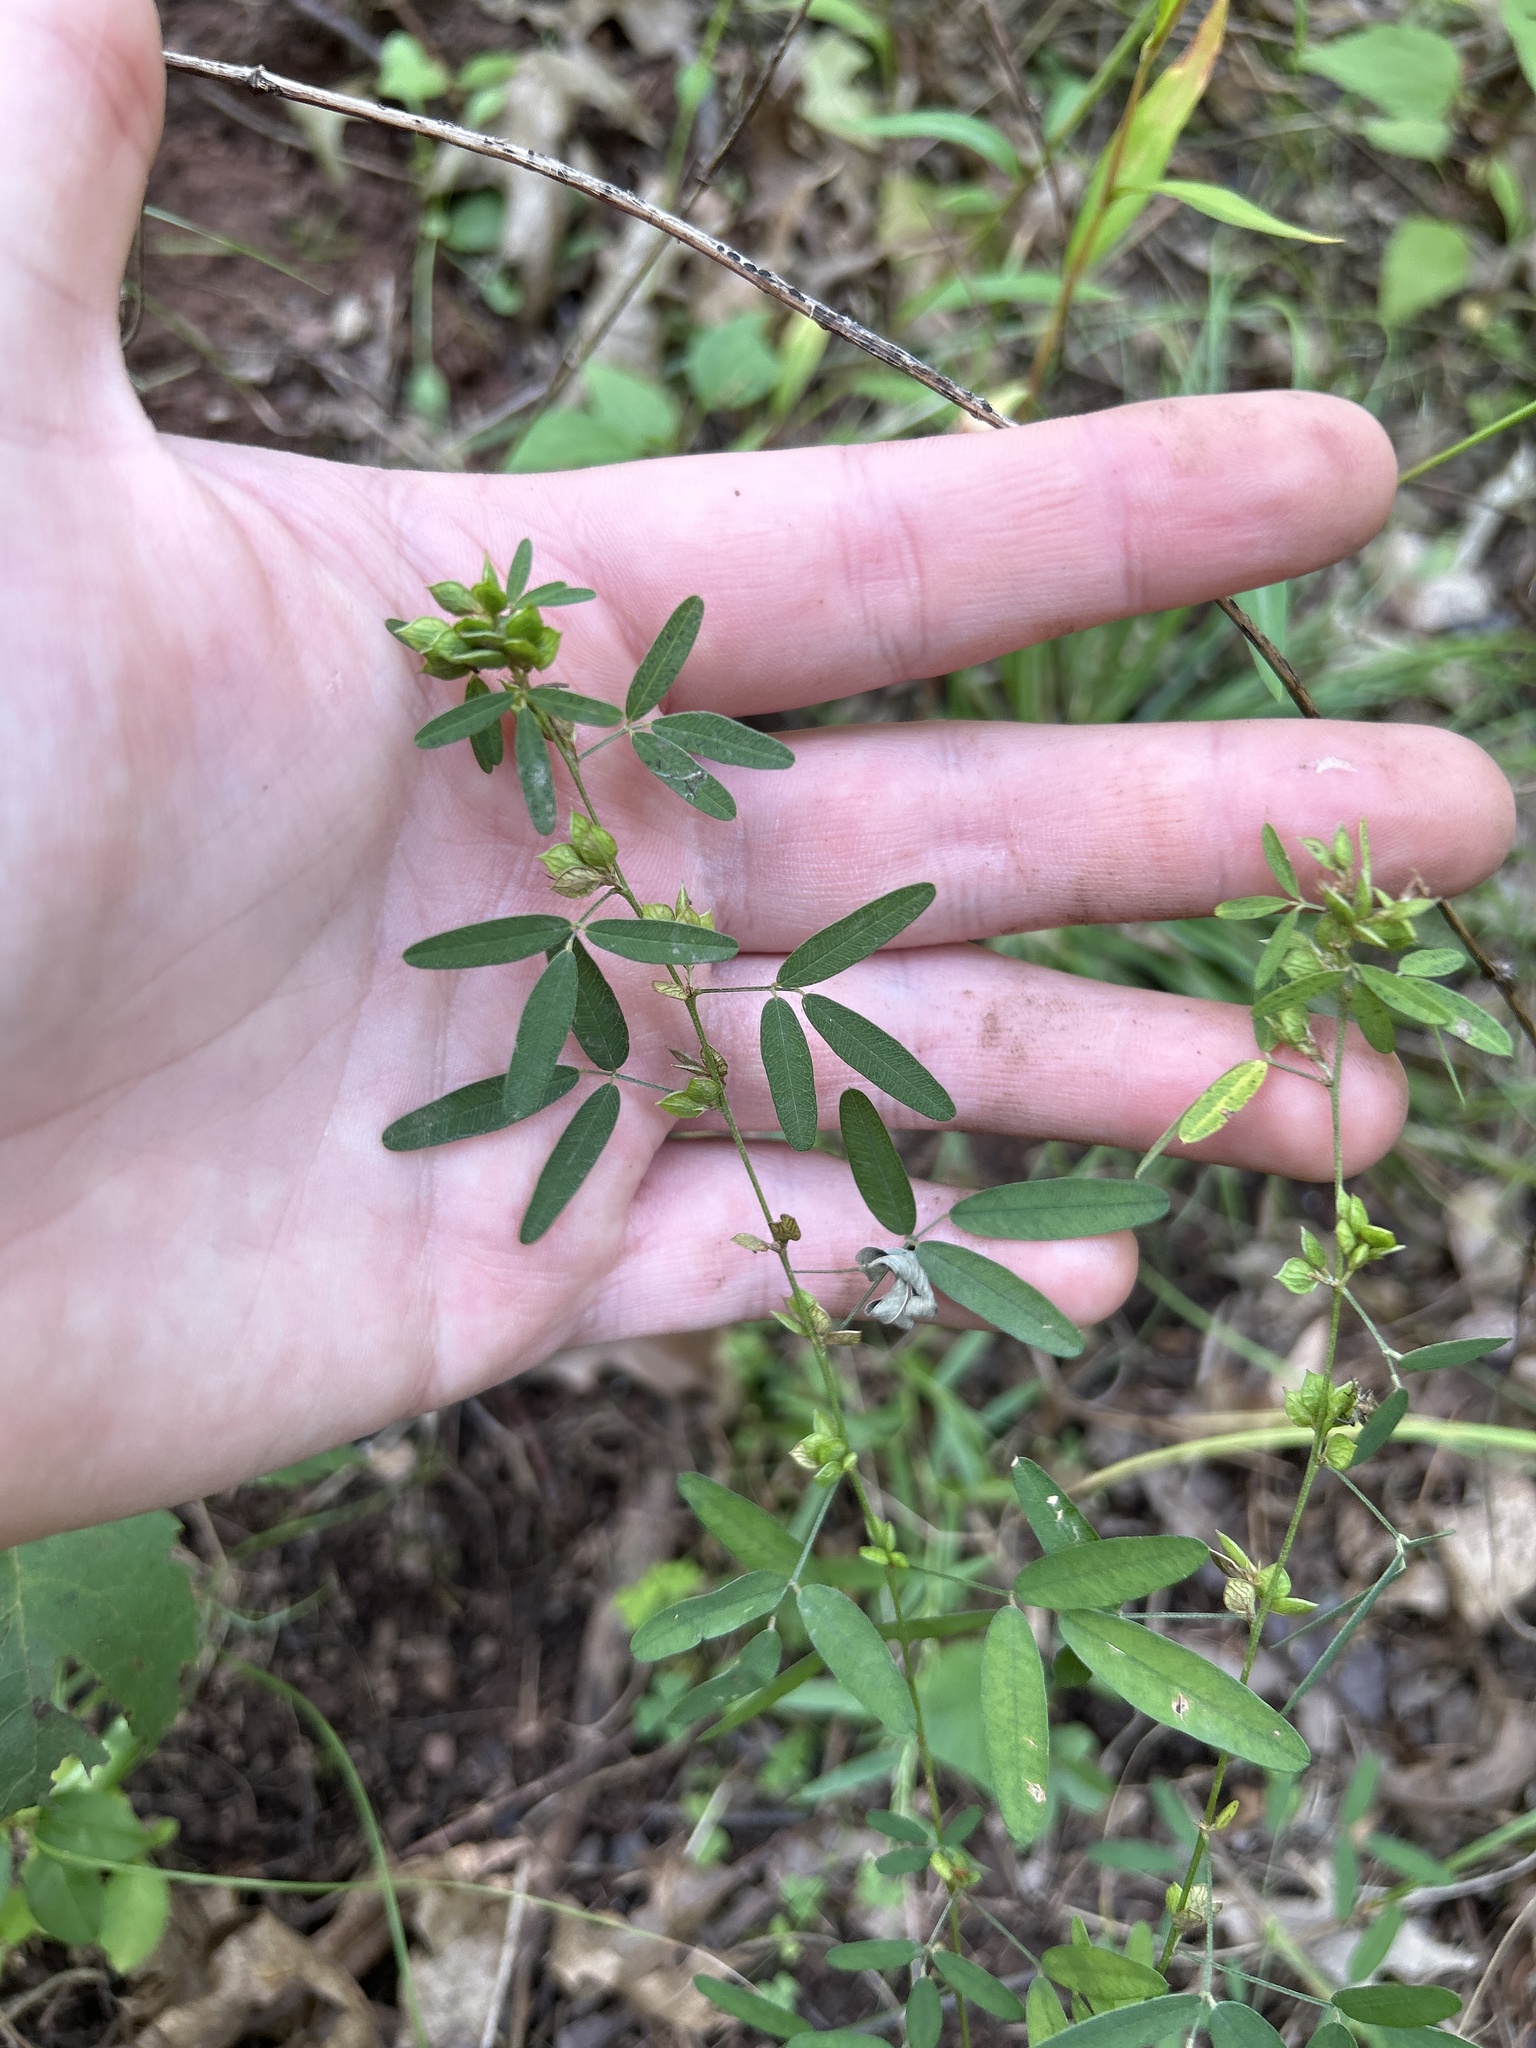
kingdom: Plantae
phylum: Tracheophyta
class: Magnoliopsida
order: Fabales
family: Fabaceae
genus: Lespedeza
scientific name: Lespedeza virginica
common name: Slender bush-clover
